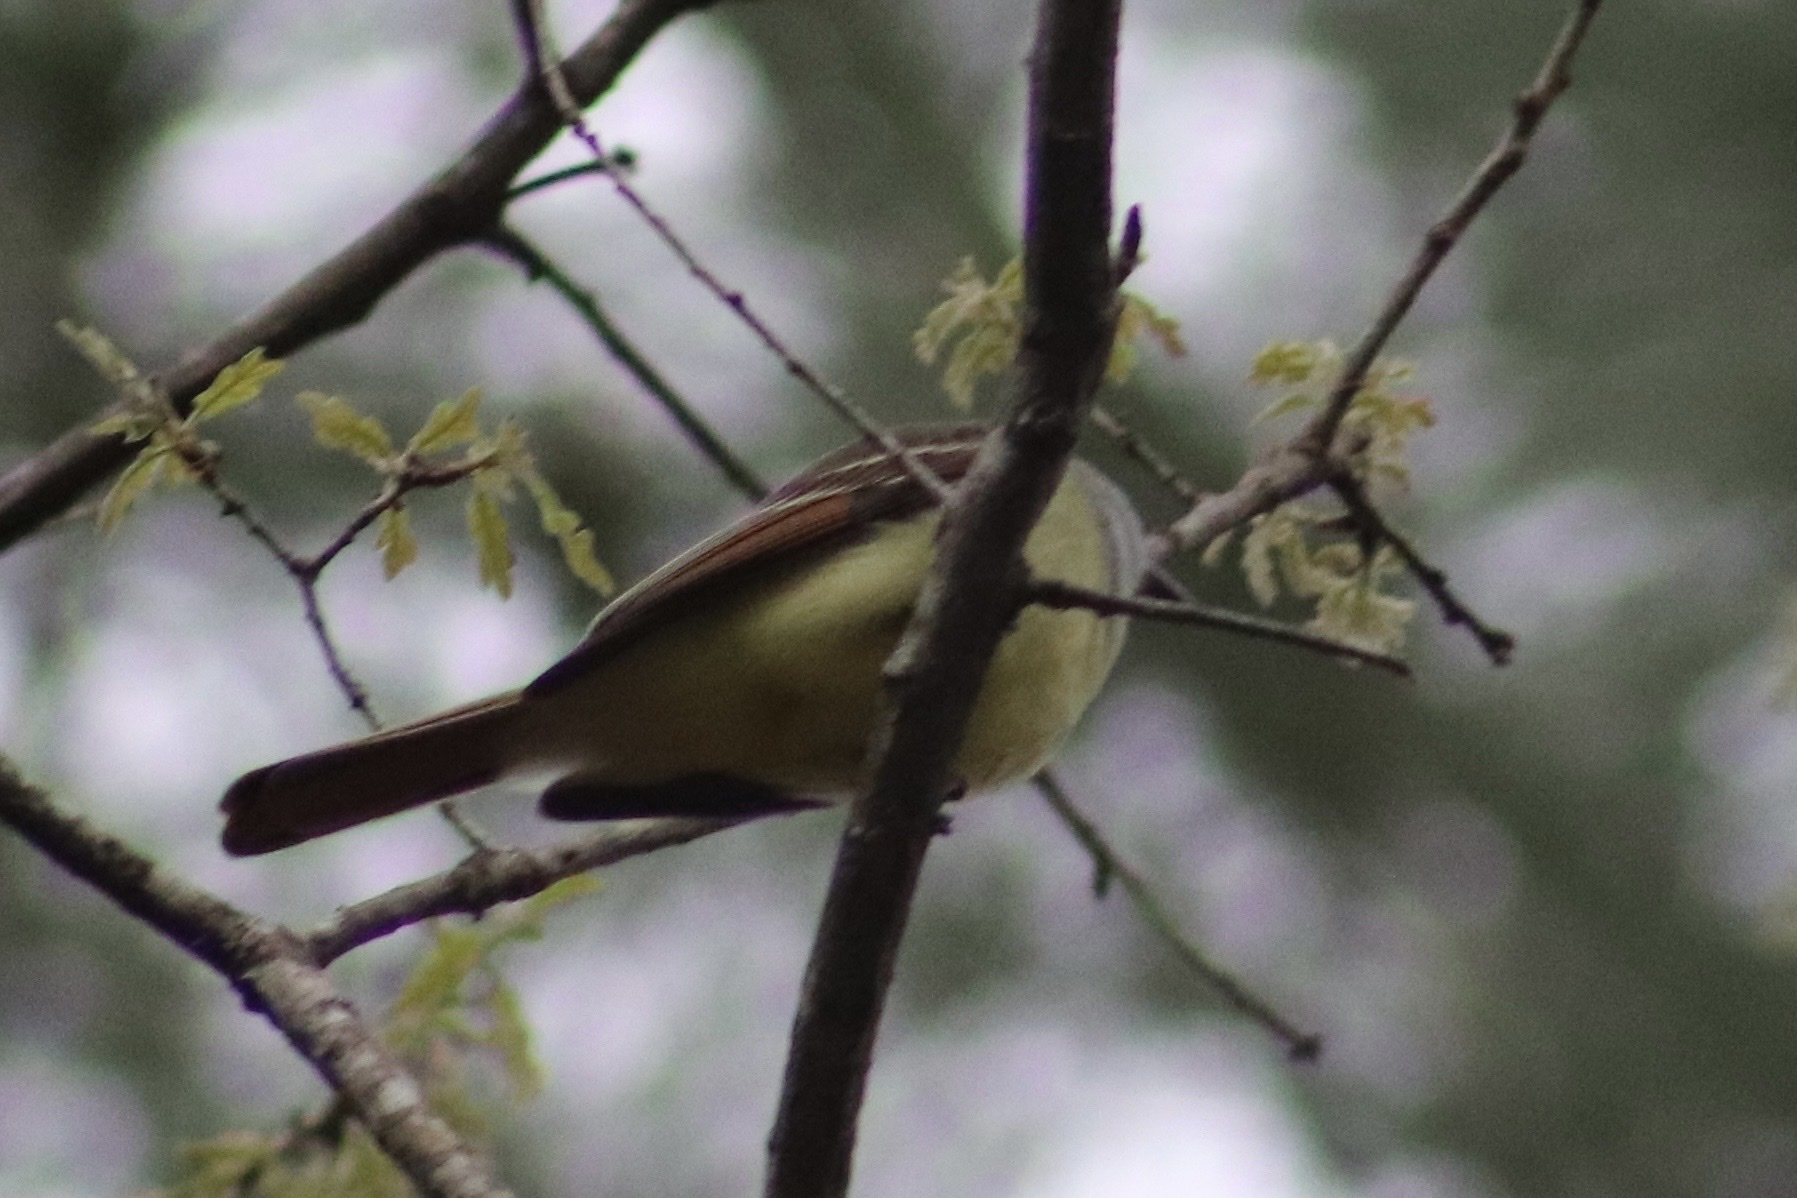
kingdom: Animalia
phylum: Chordata
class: Aves
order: Passeriformes
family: Tyrannidae
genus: Myiarchus
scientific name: Myiarchus crinitus
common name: Great crested flycatcher
